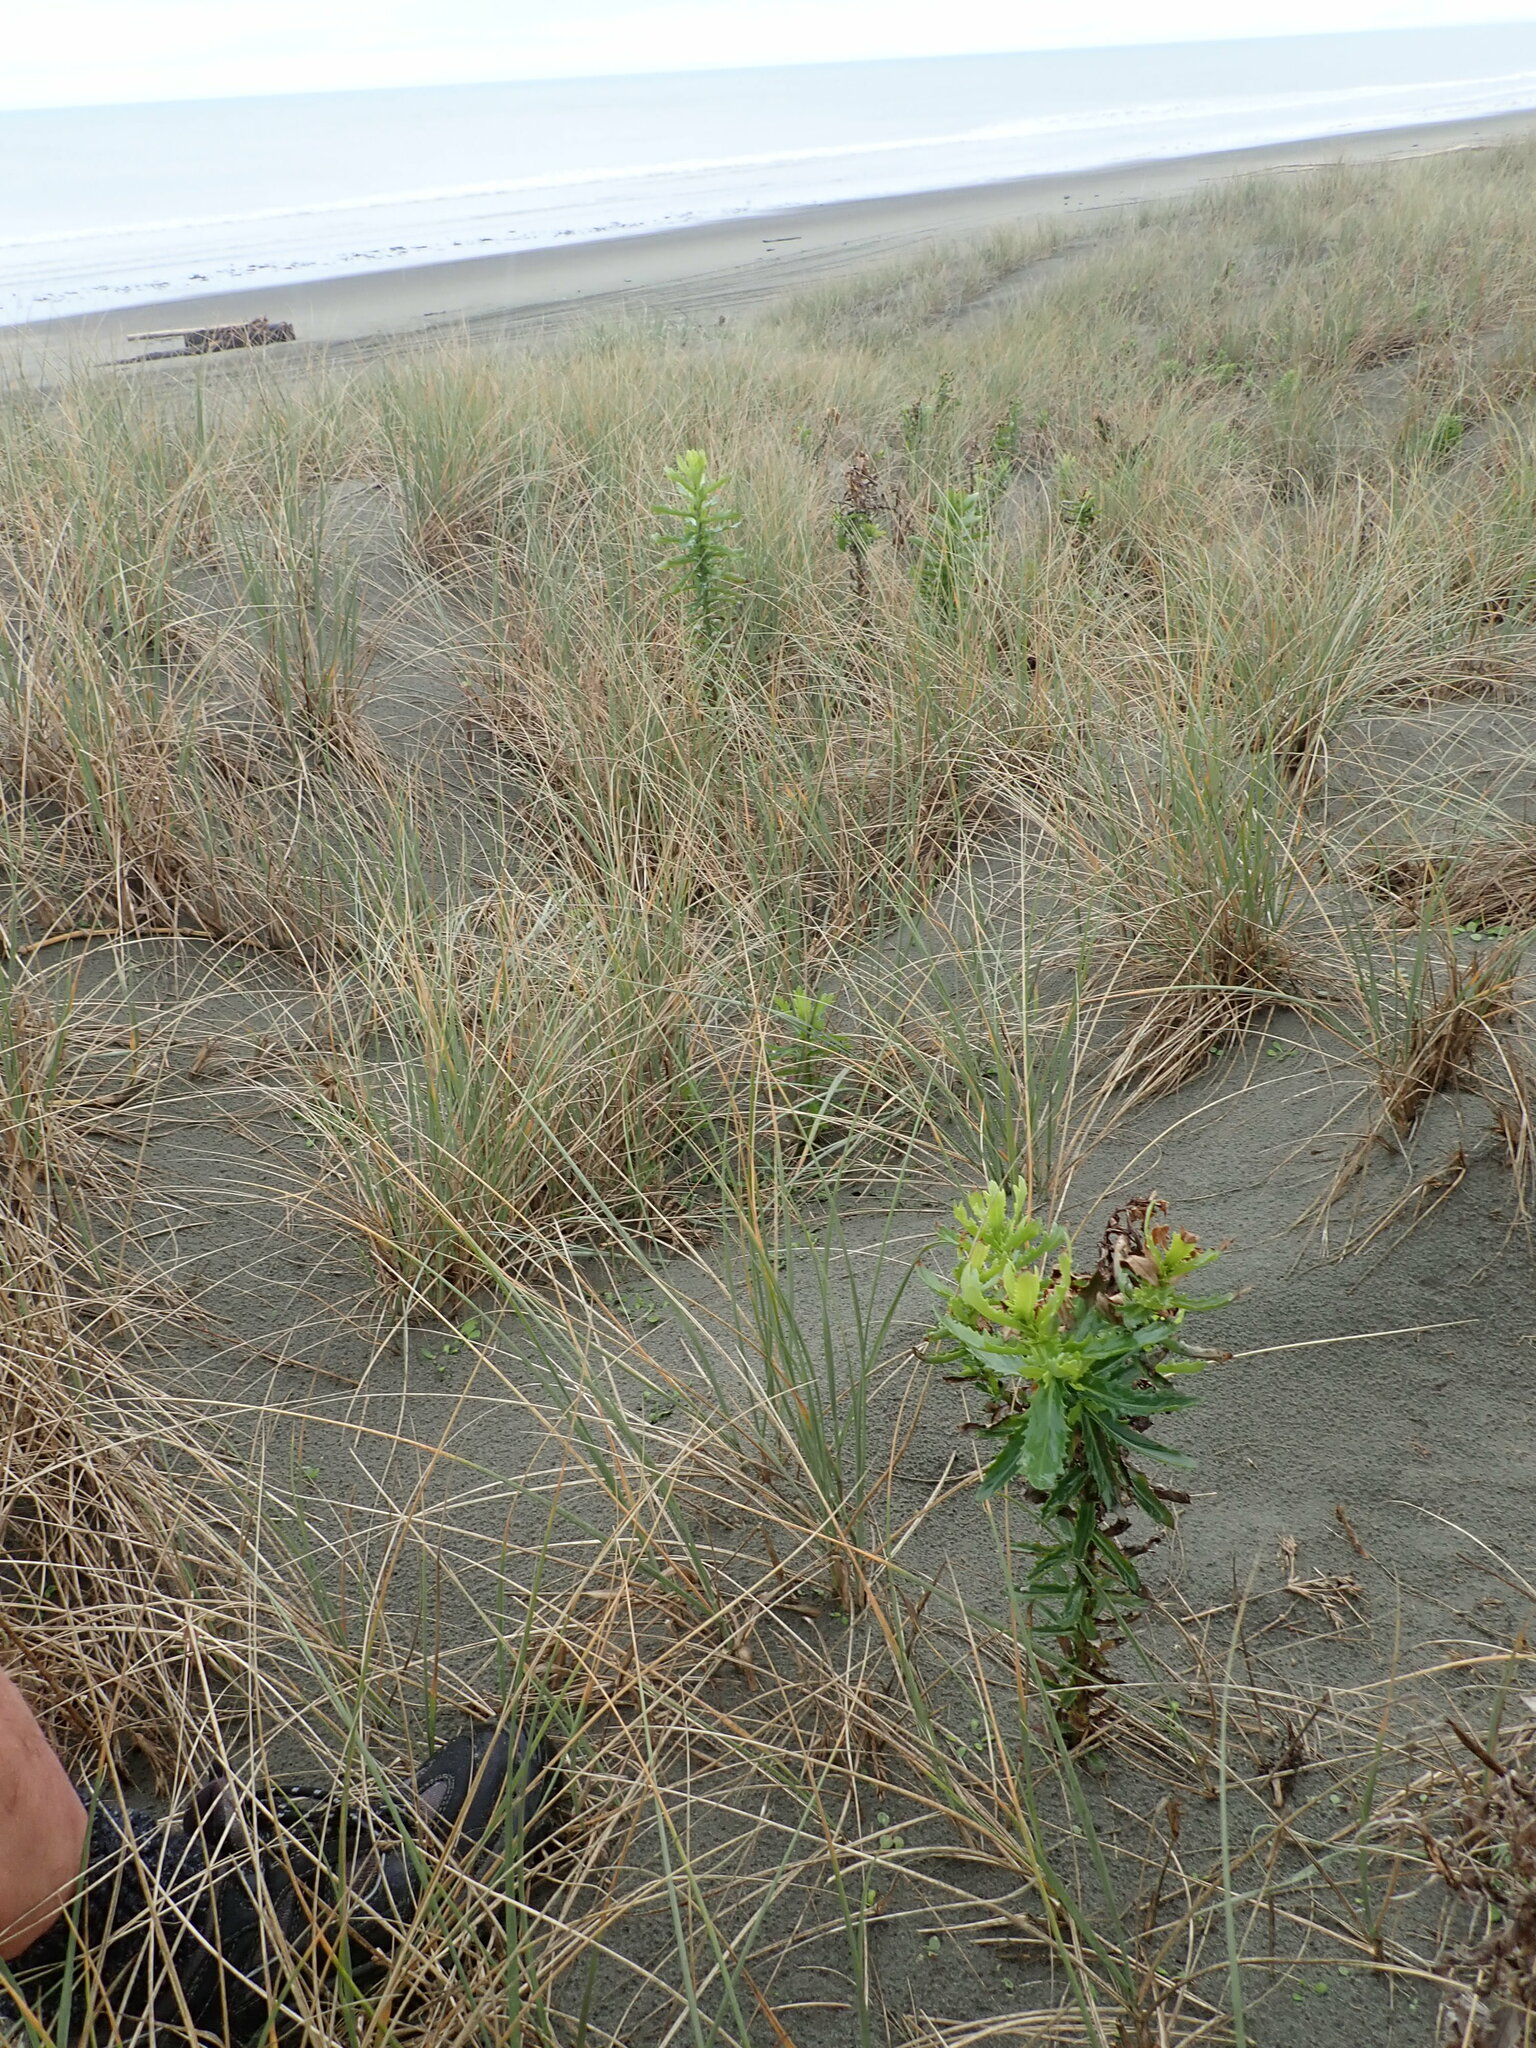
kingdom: Plantae
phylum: Tracheophyta
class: Magnoliopsida
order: Asterales
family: Asteraceae
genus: Senecio
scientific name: Senecio glastifolius
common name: Woad-leaved ragwort
